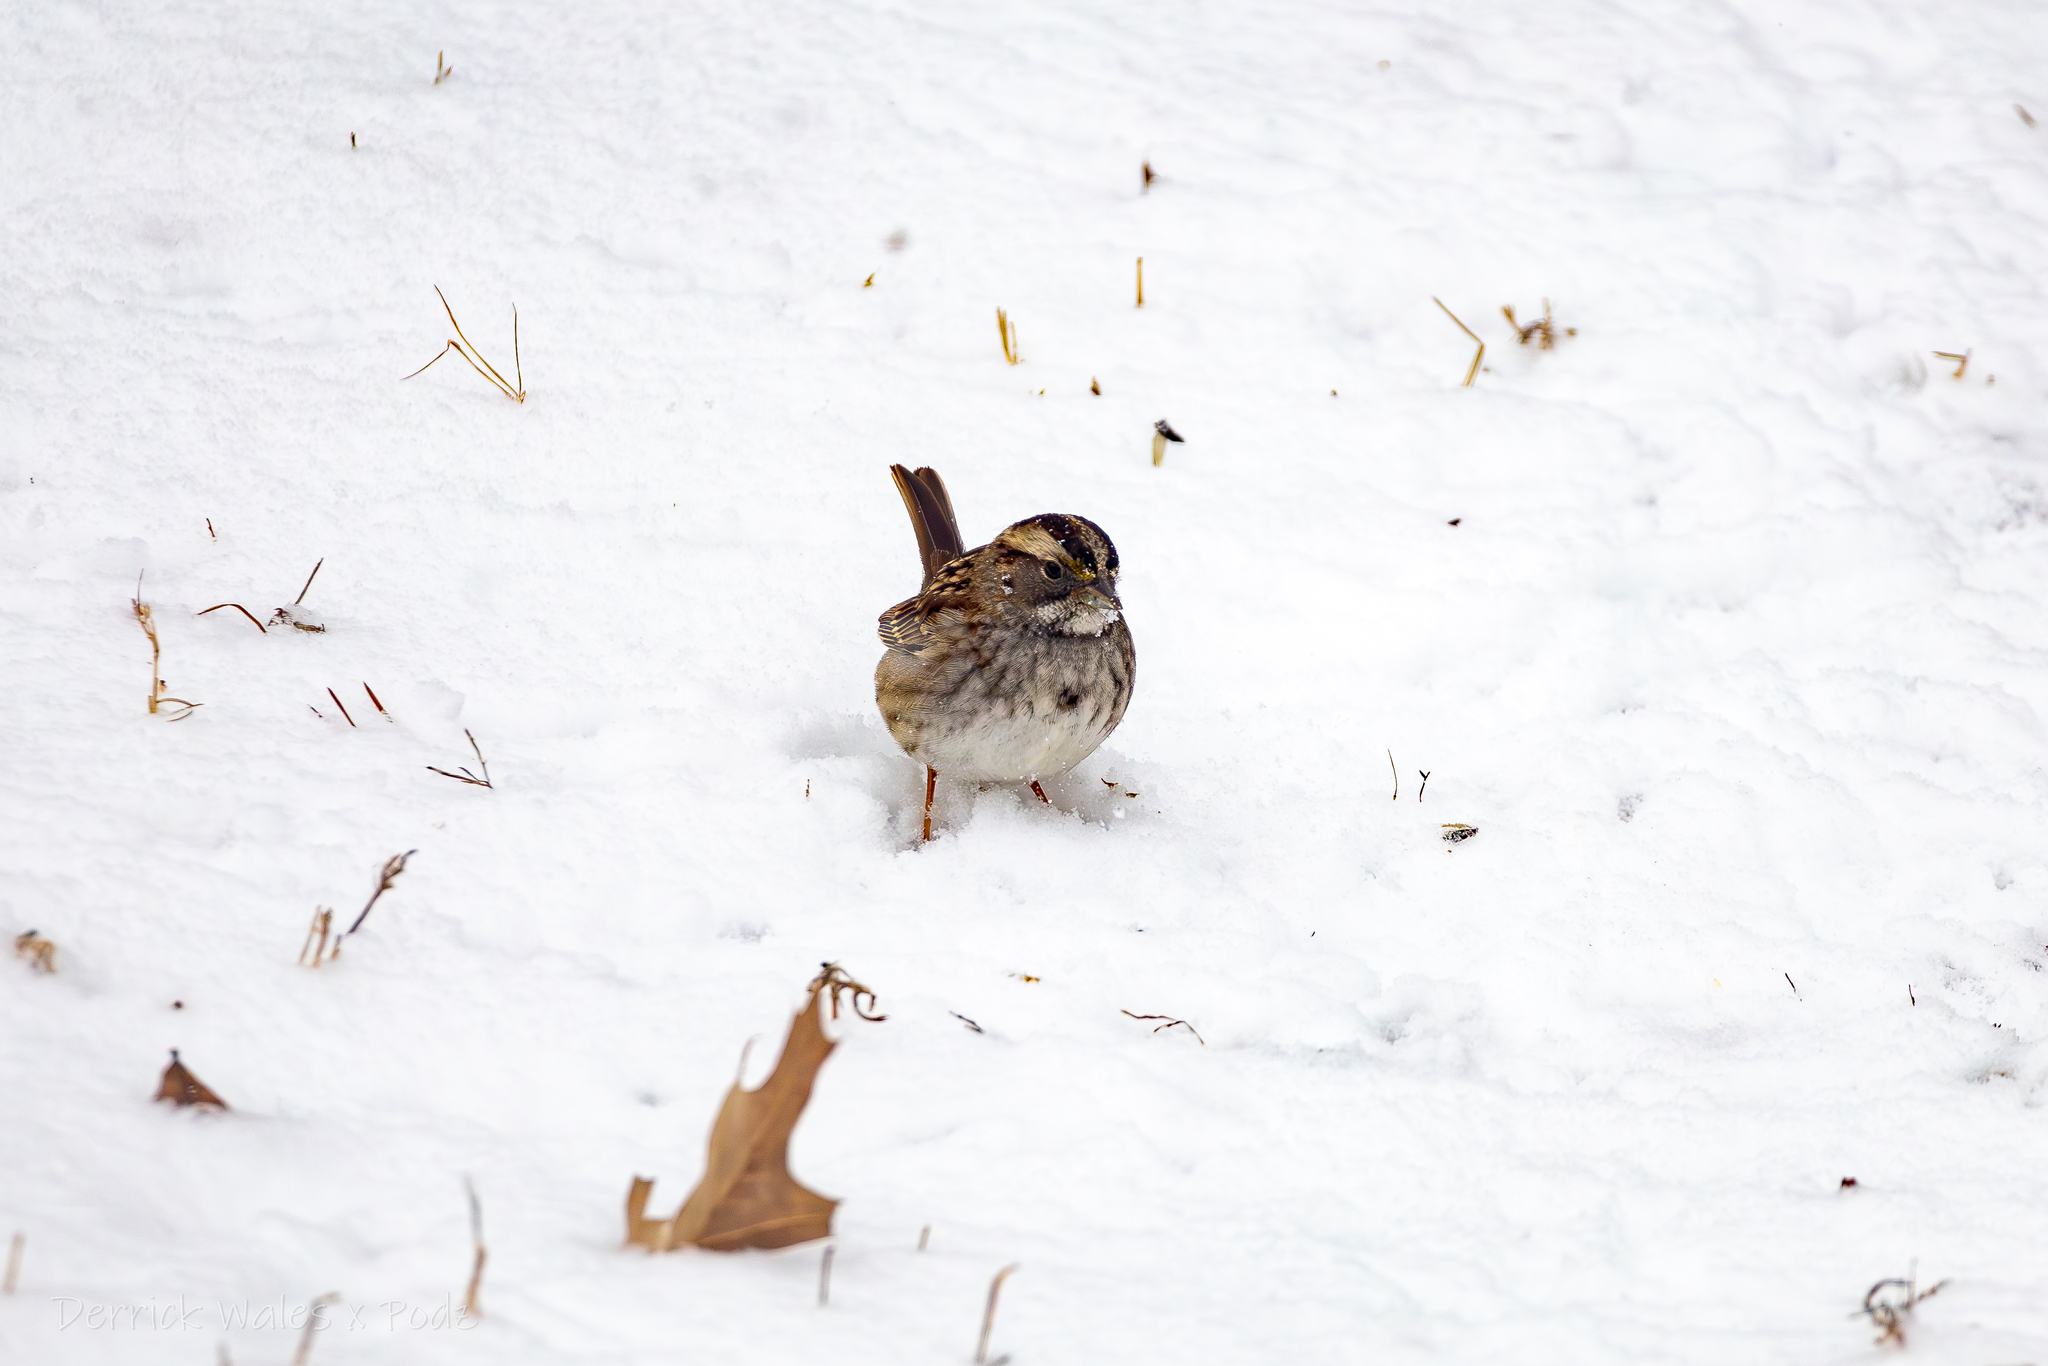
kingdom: Animalia
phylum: Chordata
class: Aves
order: Passeriformes
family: Passerellidae
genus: Zonotrichia
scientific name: Zonotrichia albicollis
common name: White-throated sparrow
